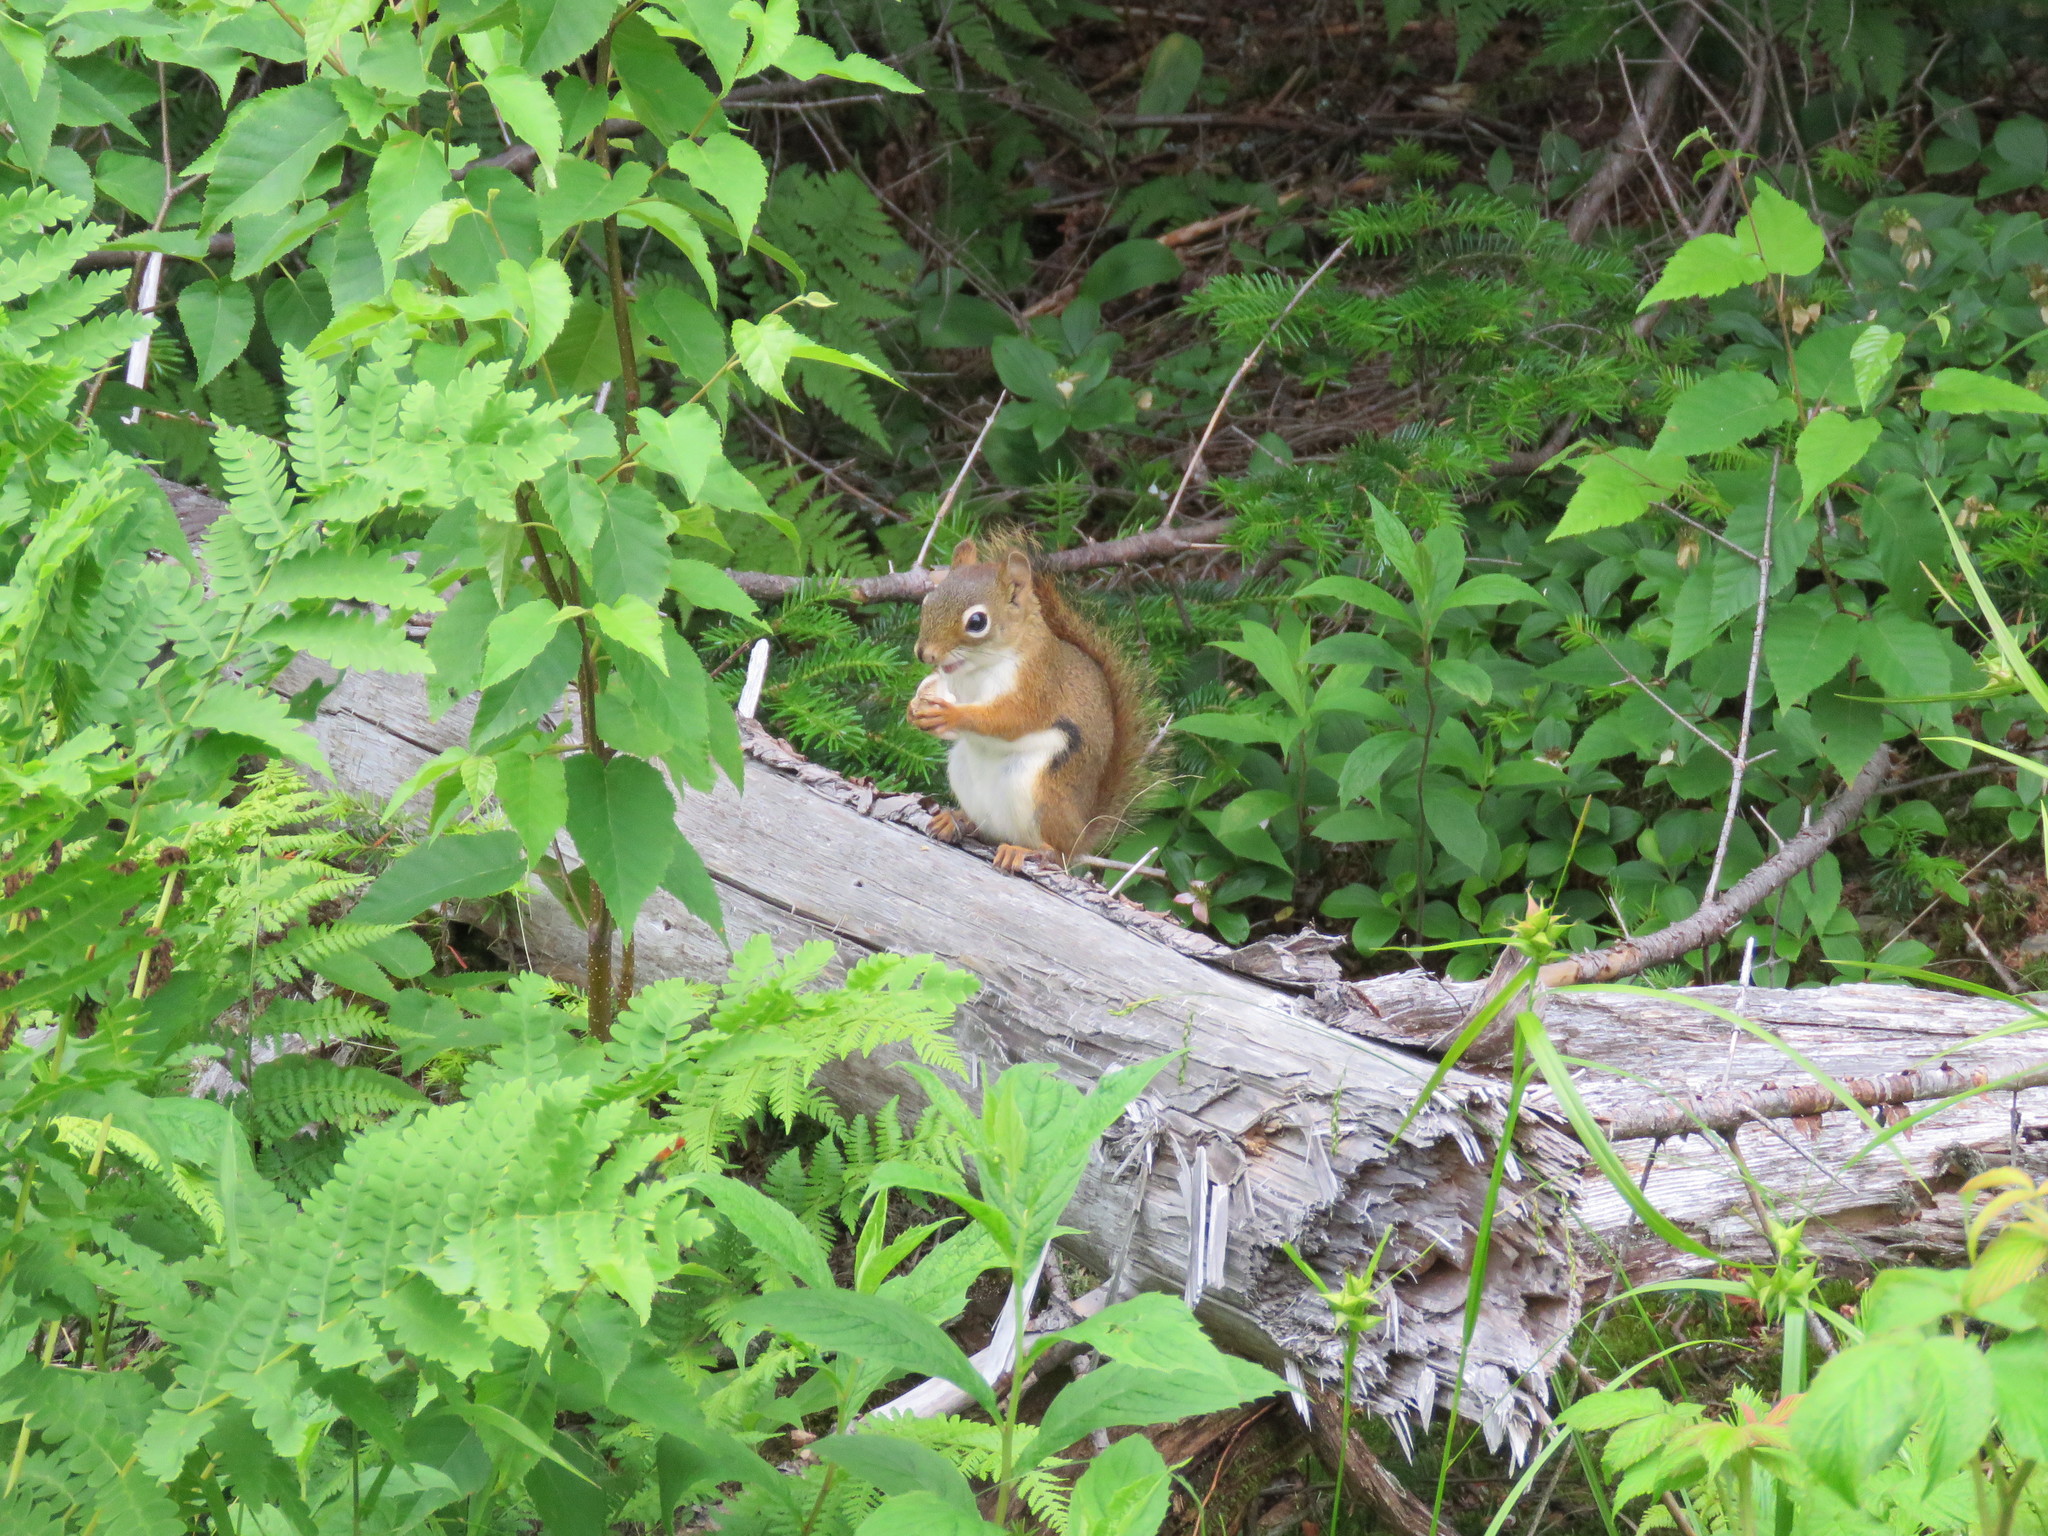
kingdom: Animalia
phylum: Chordata
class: Mammalia
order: Rodentia
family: Sciuridae
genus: Tamiasciurus
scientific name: Tamiasciurus hudsonicus
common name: Red squirrel
